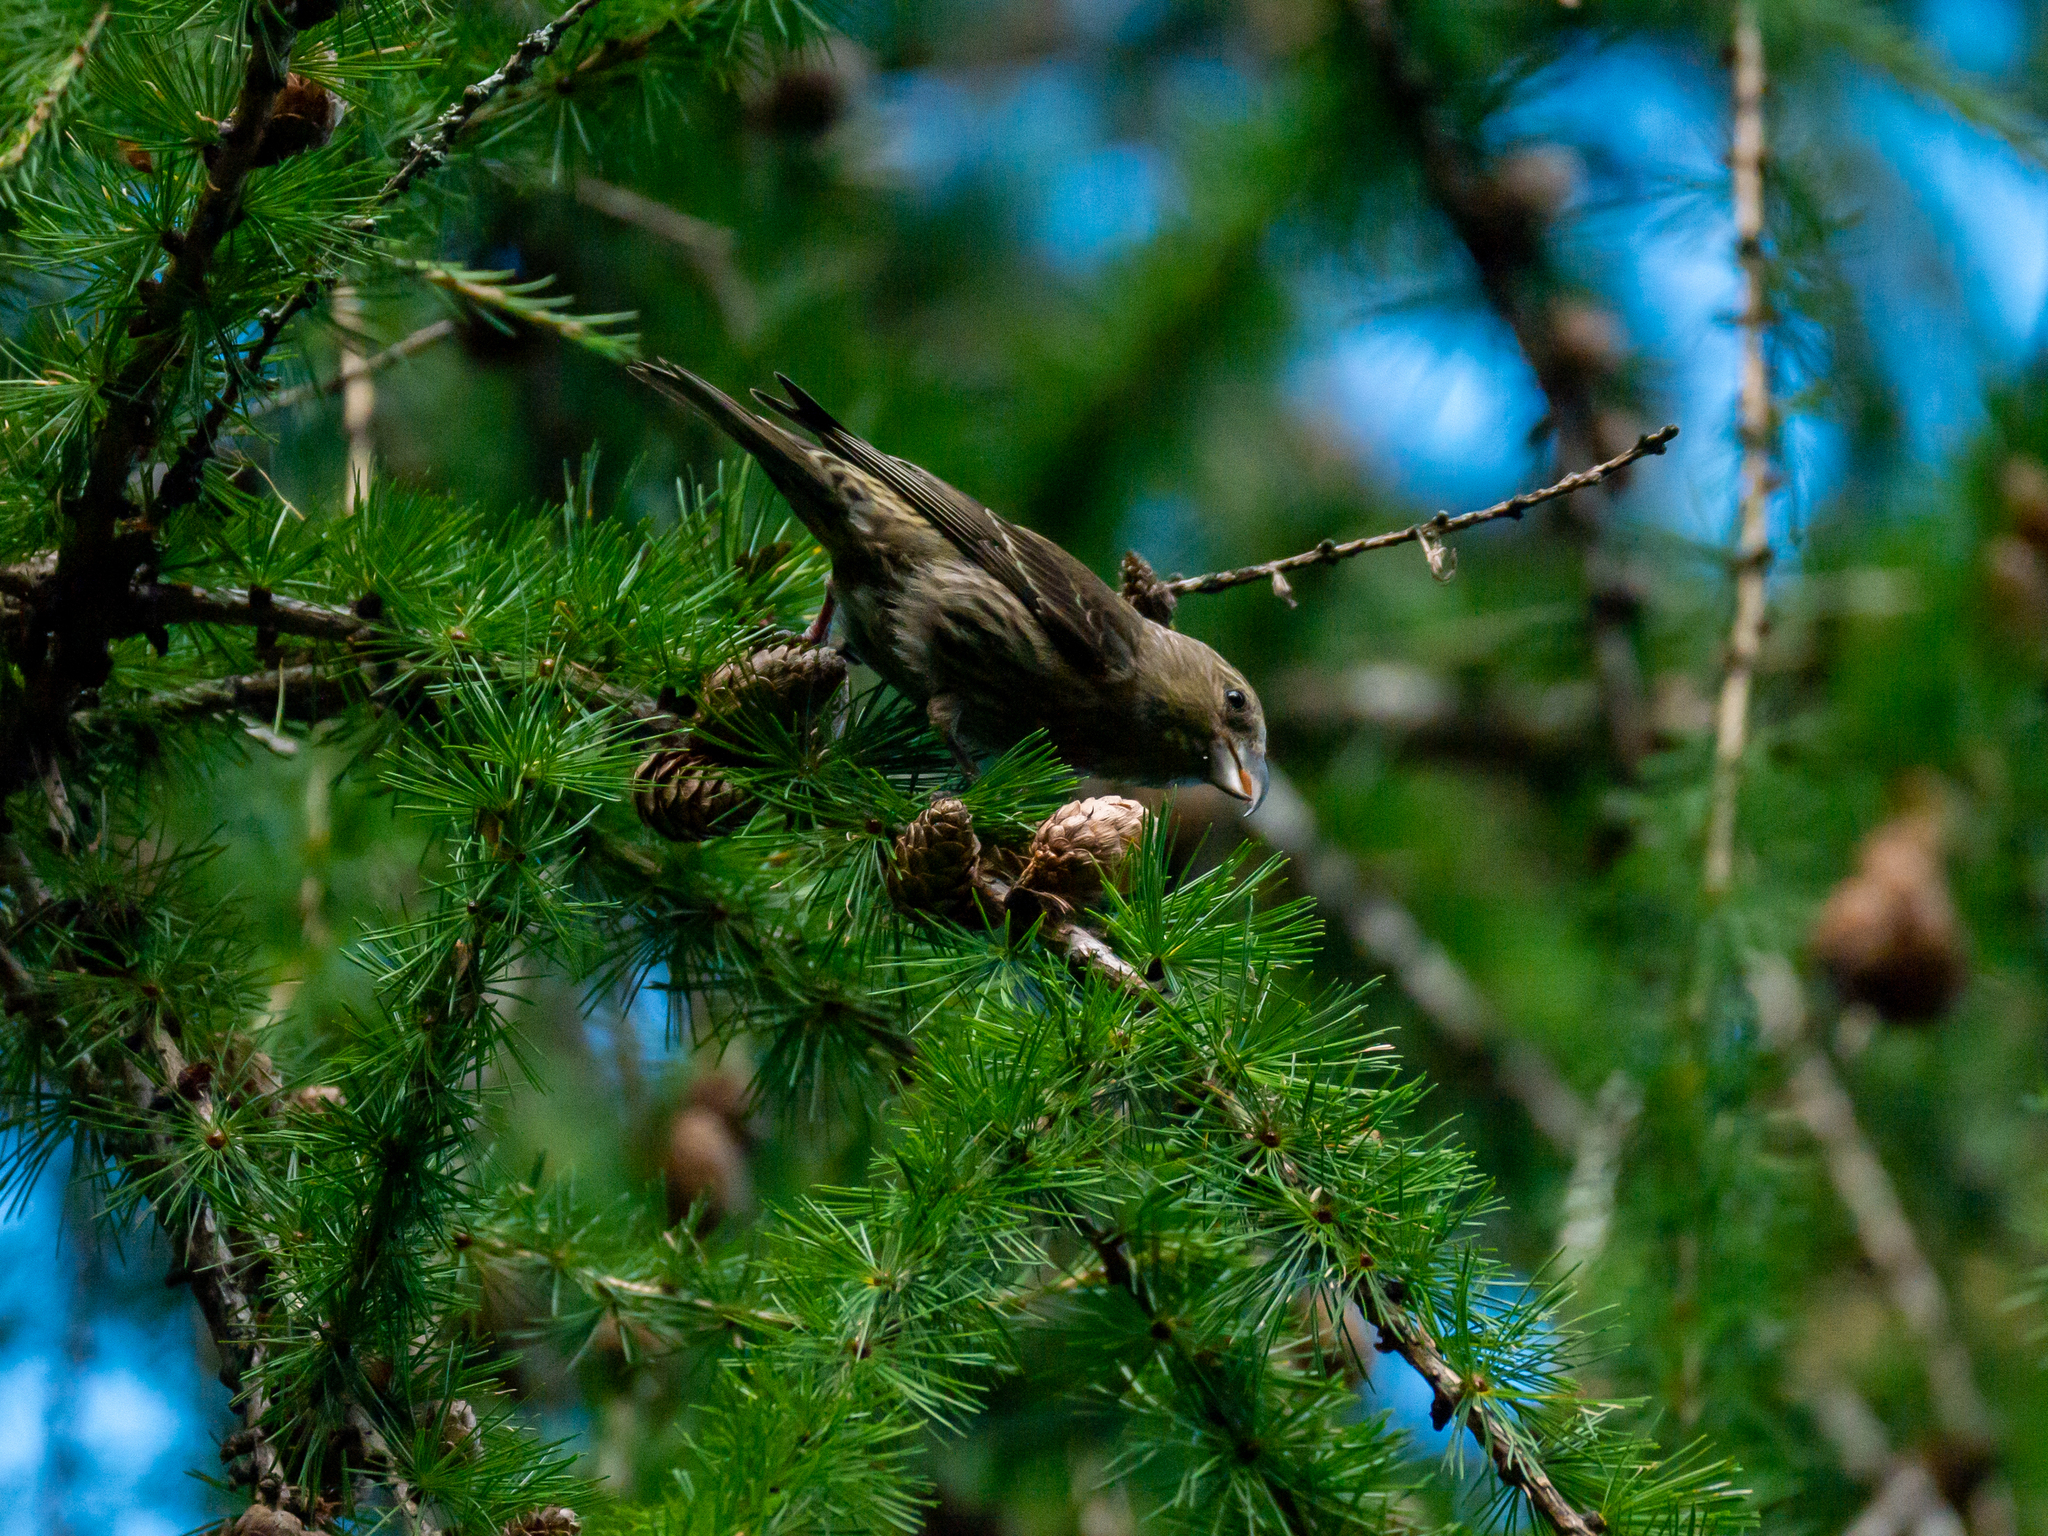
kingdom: Animalia
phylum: Chordata
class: Aves
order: Passeriformes
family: Fringillidae
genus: Loxia
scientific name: Loxia curvirostra
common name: Red crossbill
